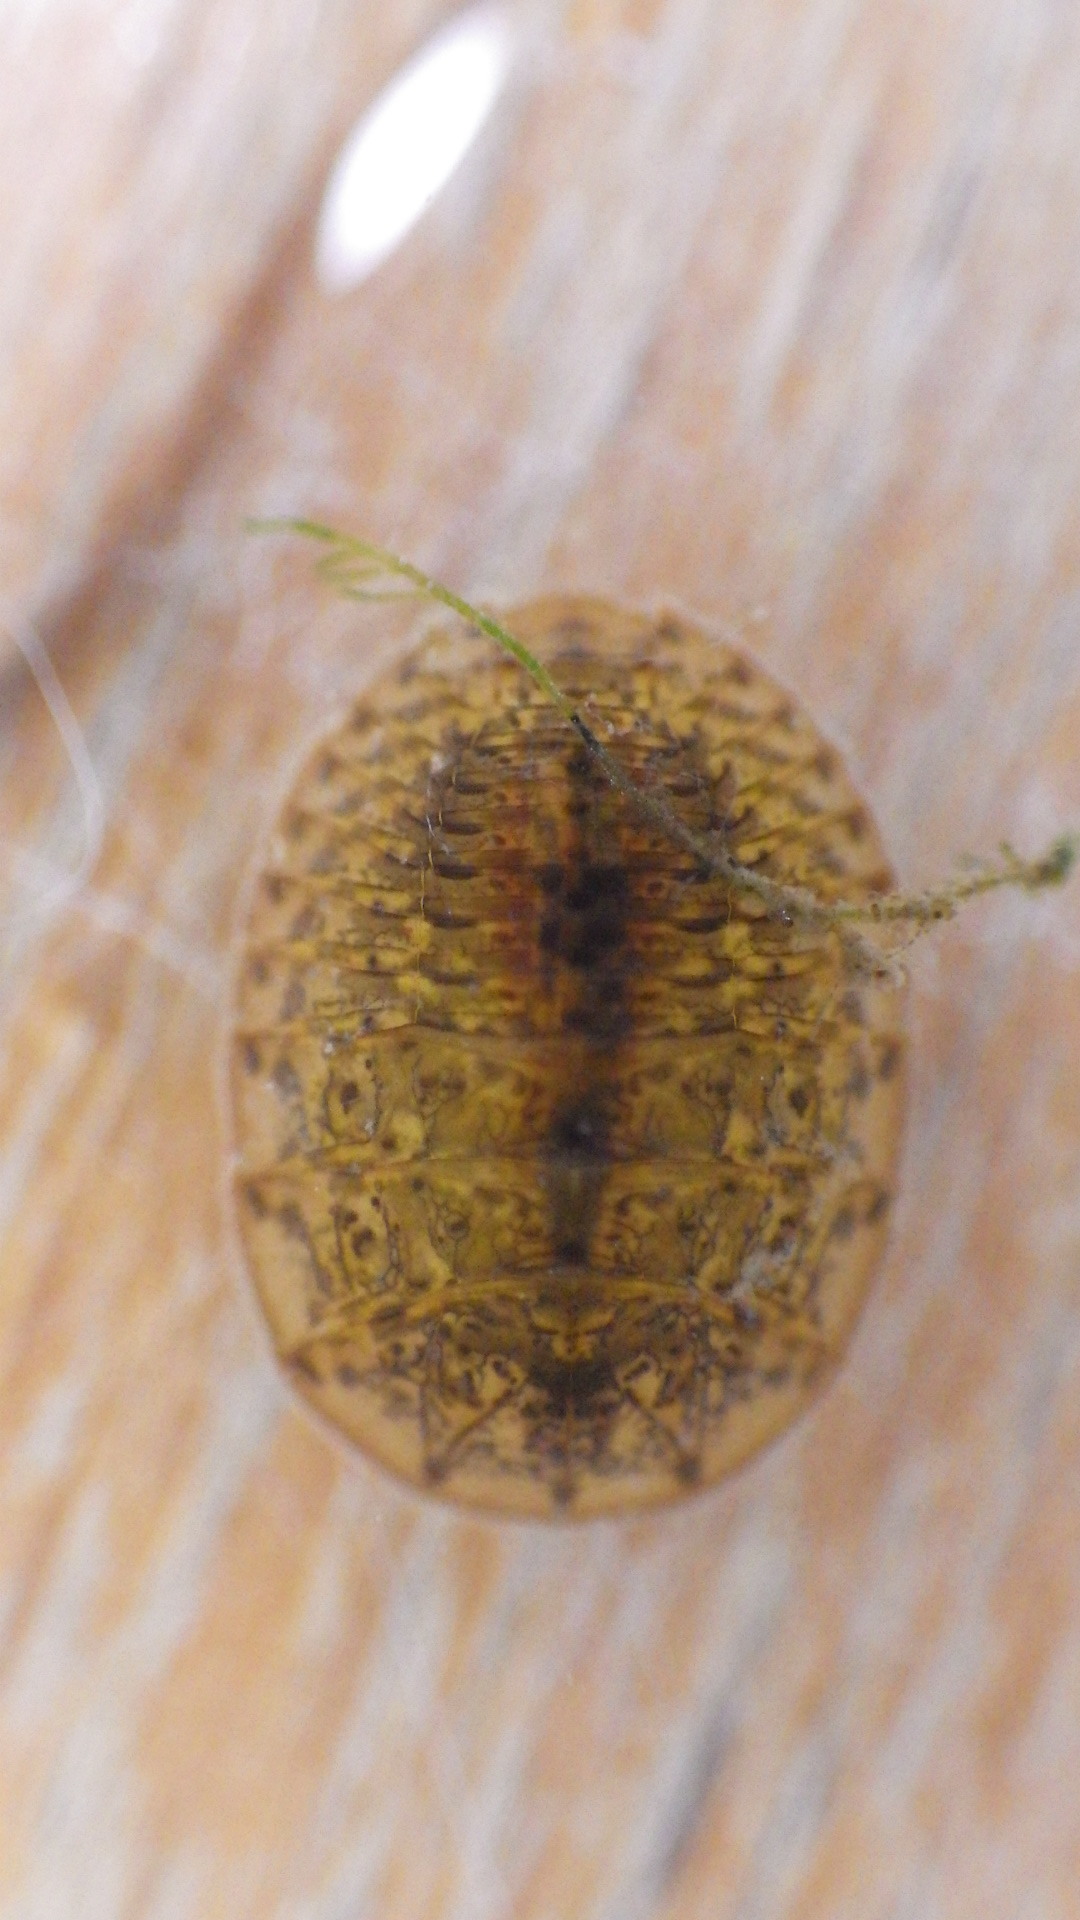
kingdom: Animalia
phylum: Arthropoda
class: Insecta
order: Coleoptera
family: Psephenidae
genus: Psephenus
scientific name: Psephenus herricki
